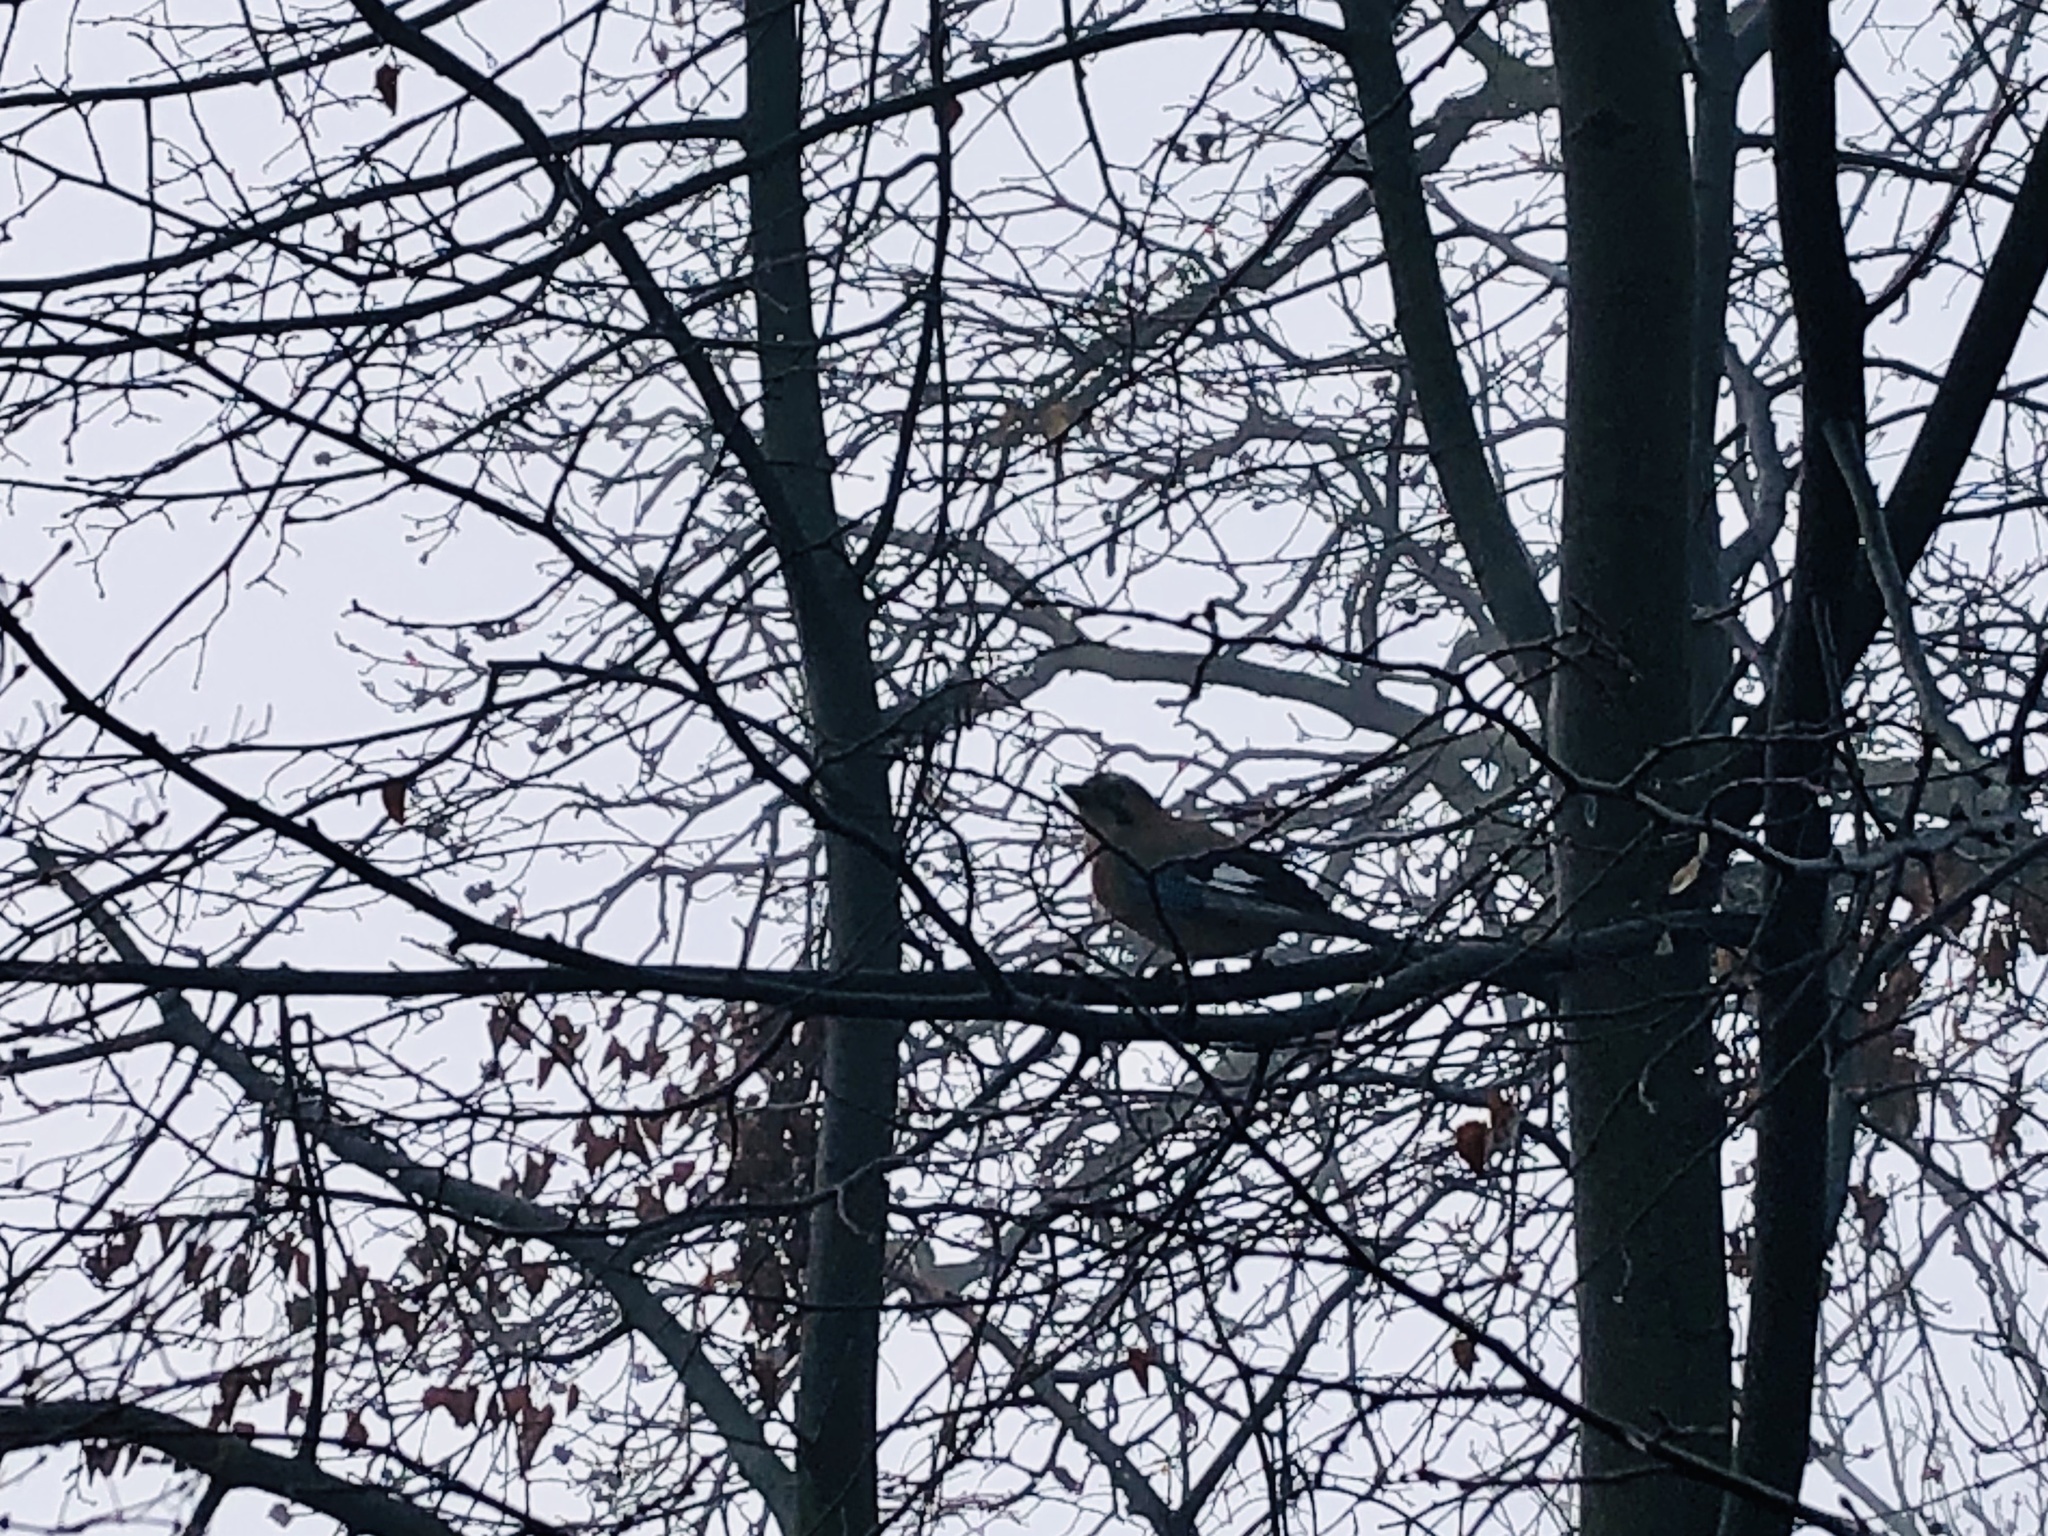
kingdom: Animalia
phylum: Chordata
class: Aves
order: Passeriformes
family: Corvidae
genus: Garrulus
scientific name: Garrulus glandarius
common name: Eurasian jay
